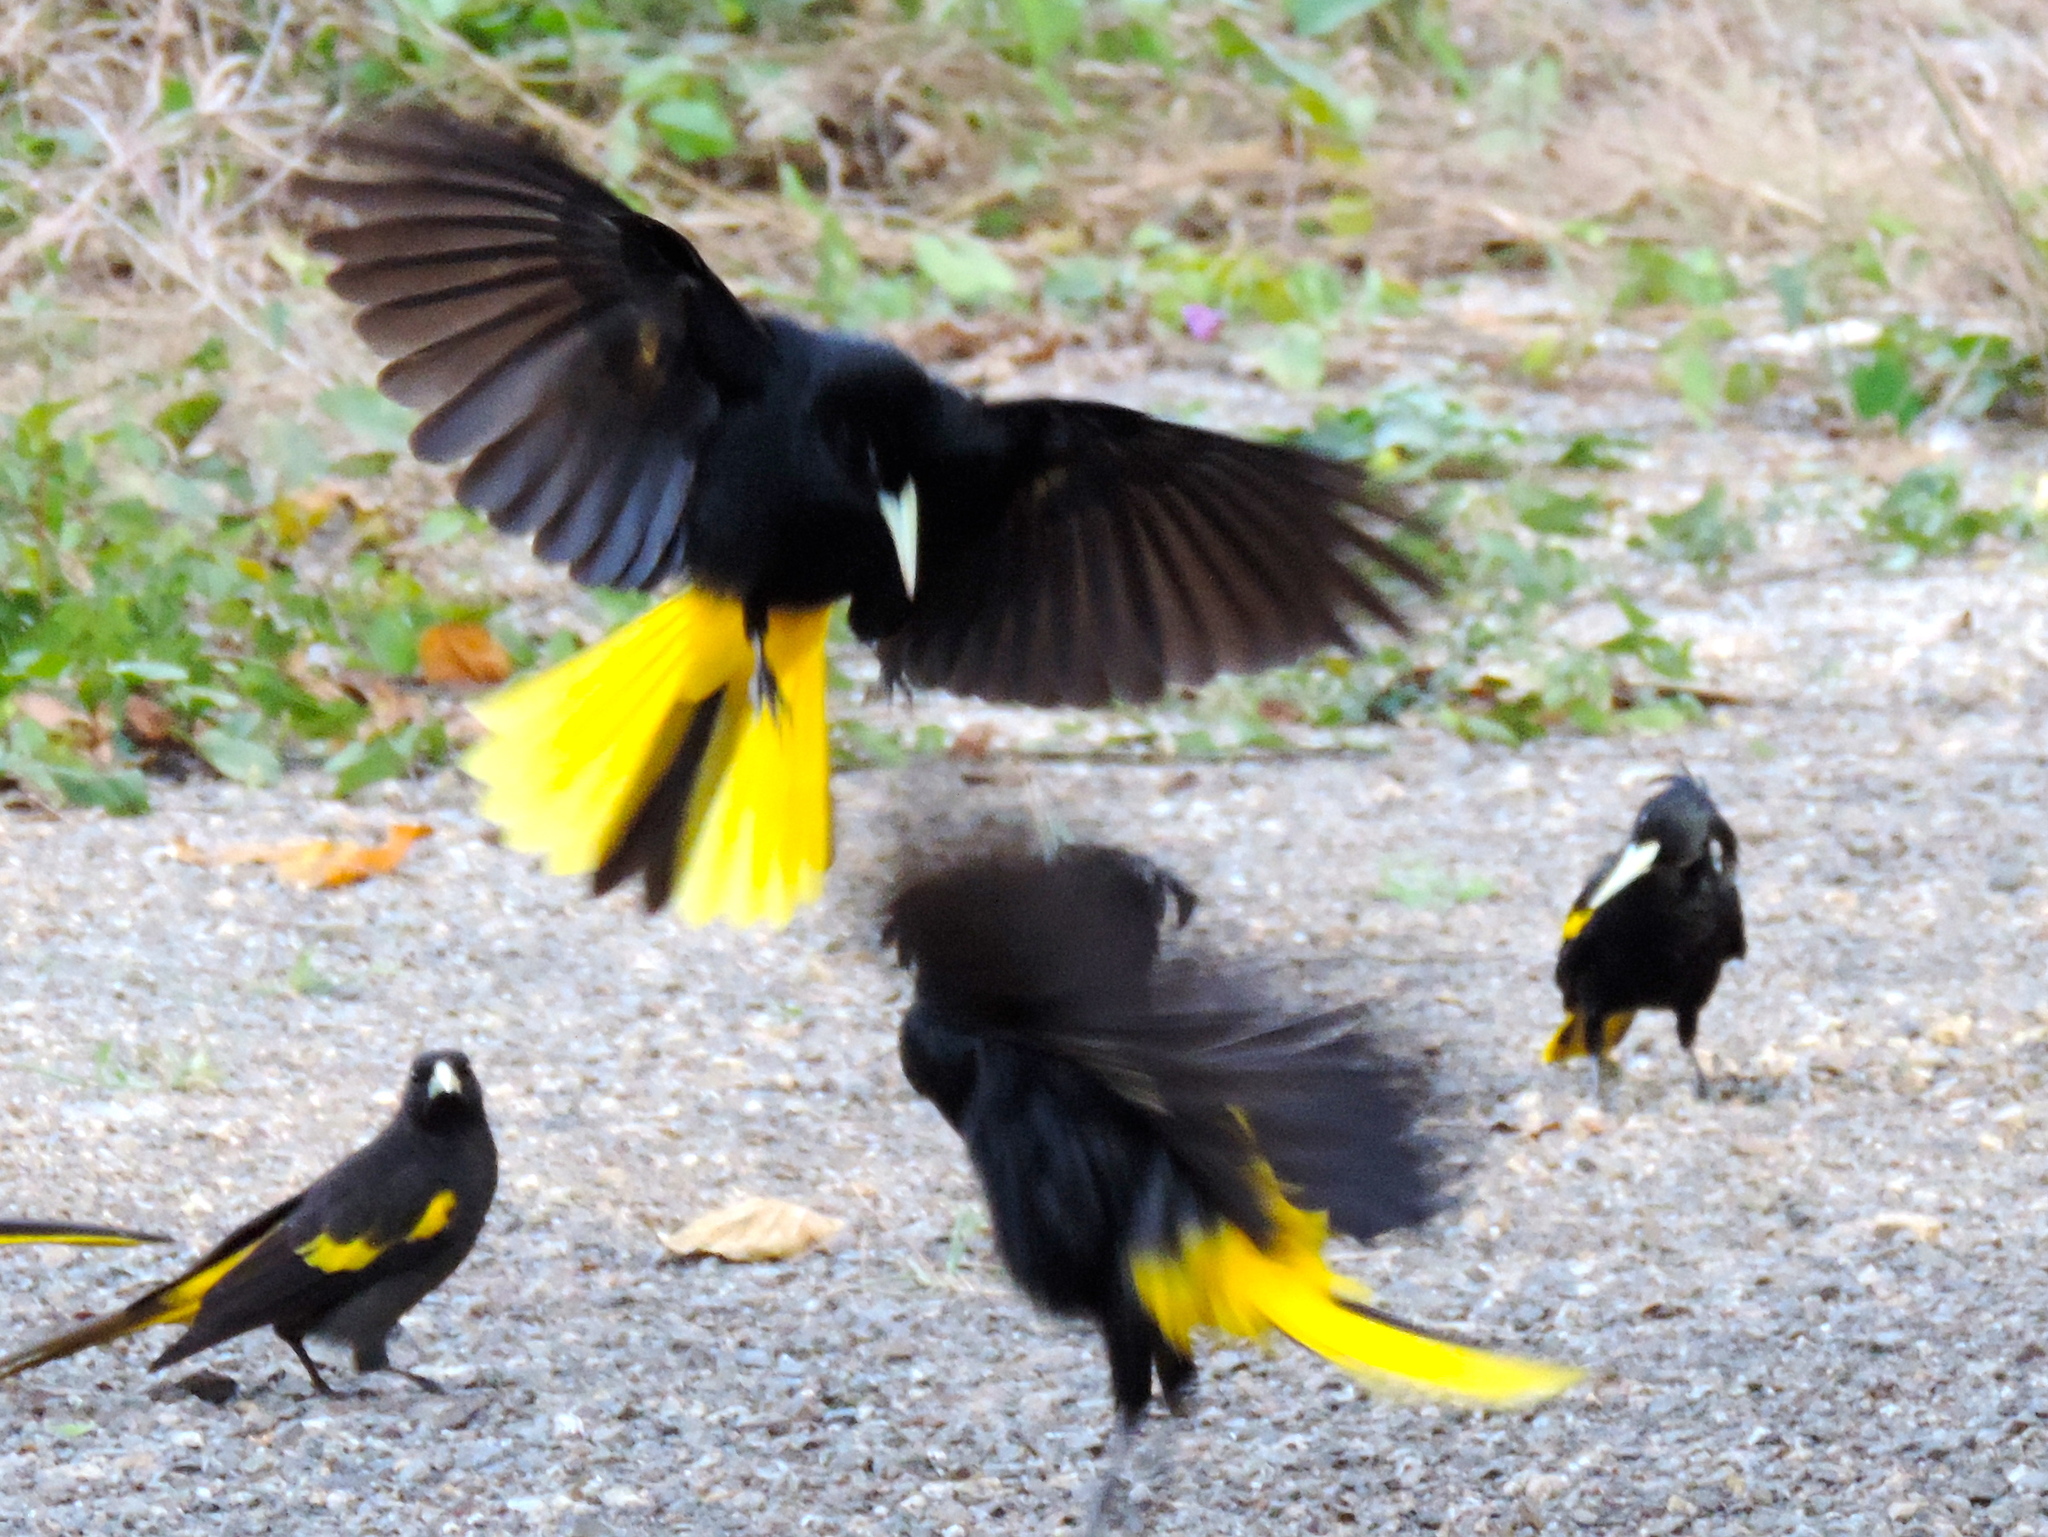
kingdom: Animalia
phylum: Chordata
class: Aves
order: Passeriformes
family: Icteridae
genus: Cacicus
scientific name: Cacicus melanicterus
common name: Yellow-winged cacique
